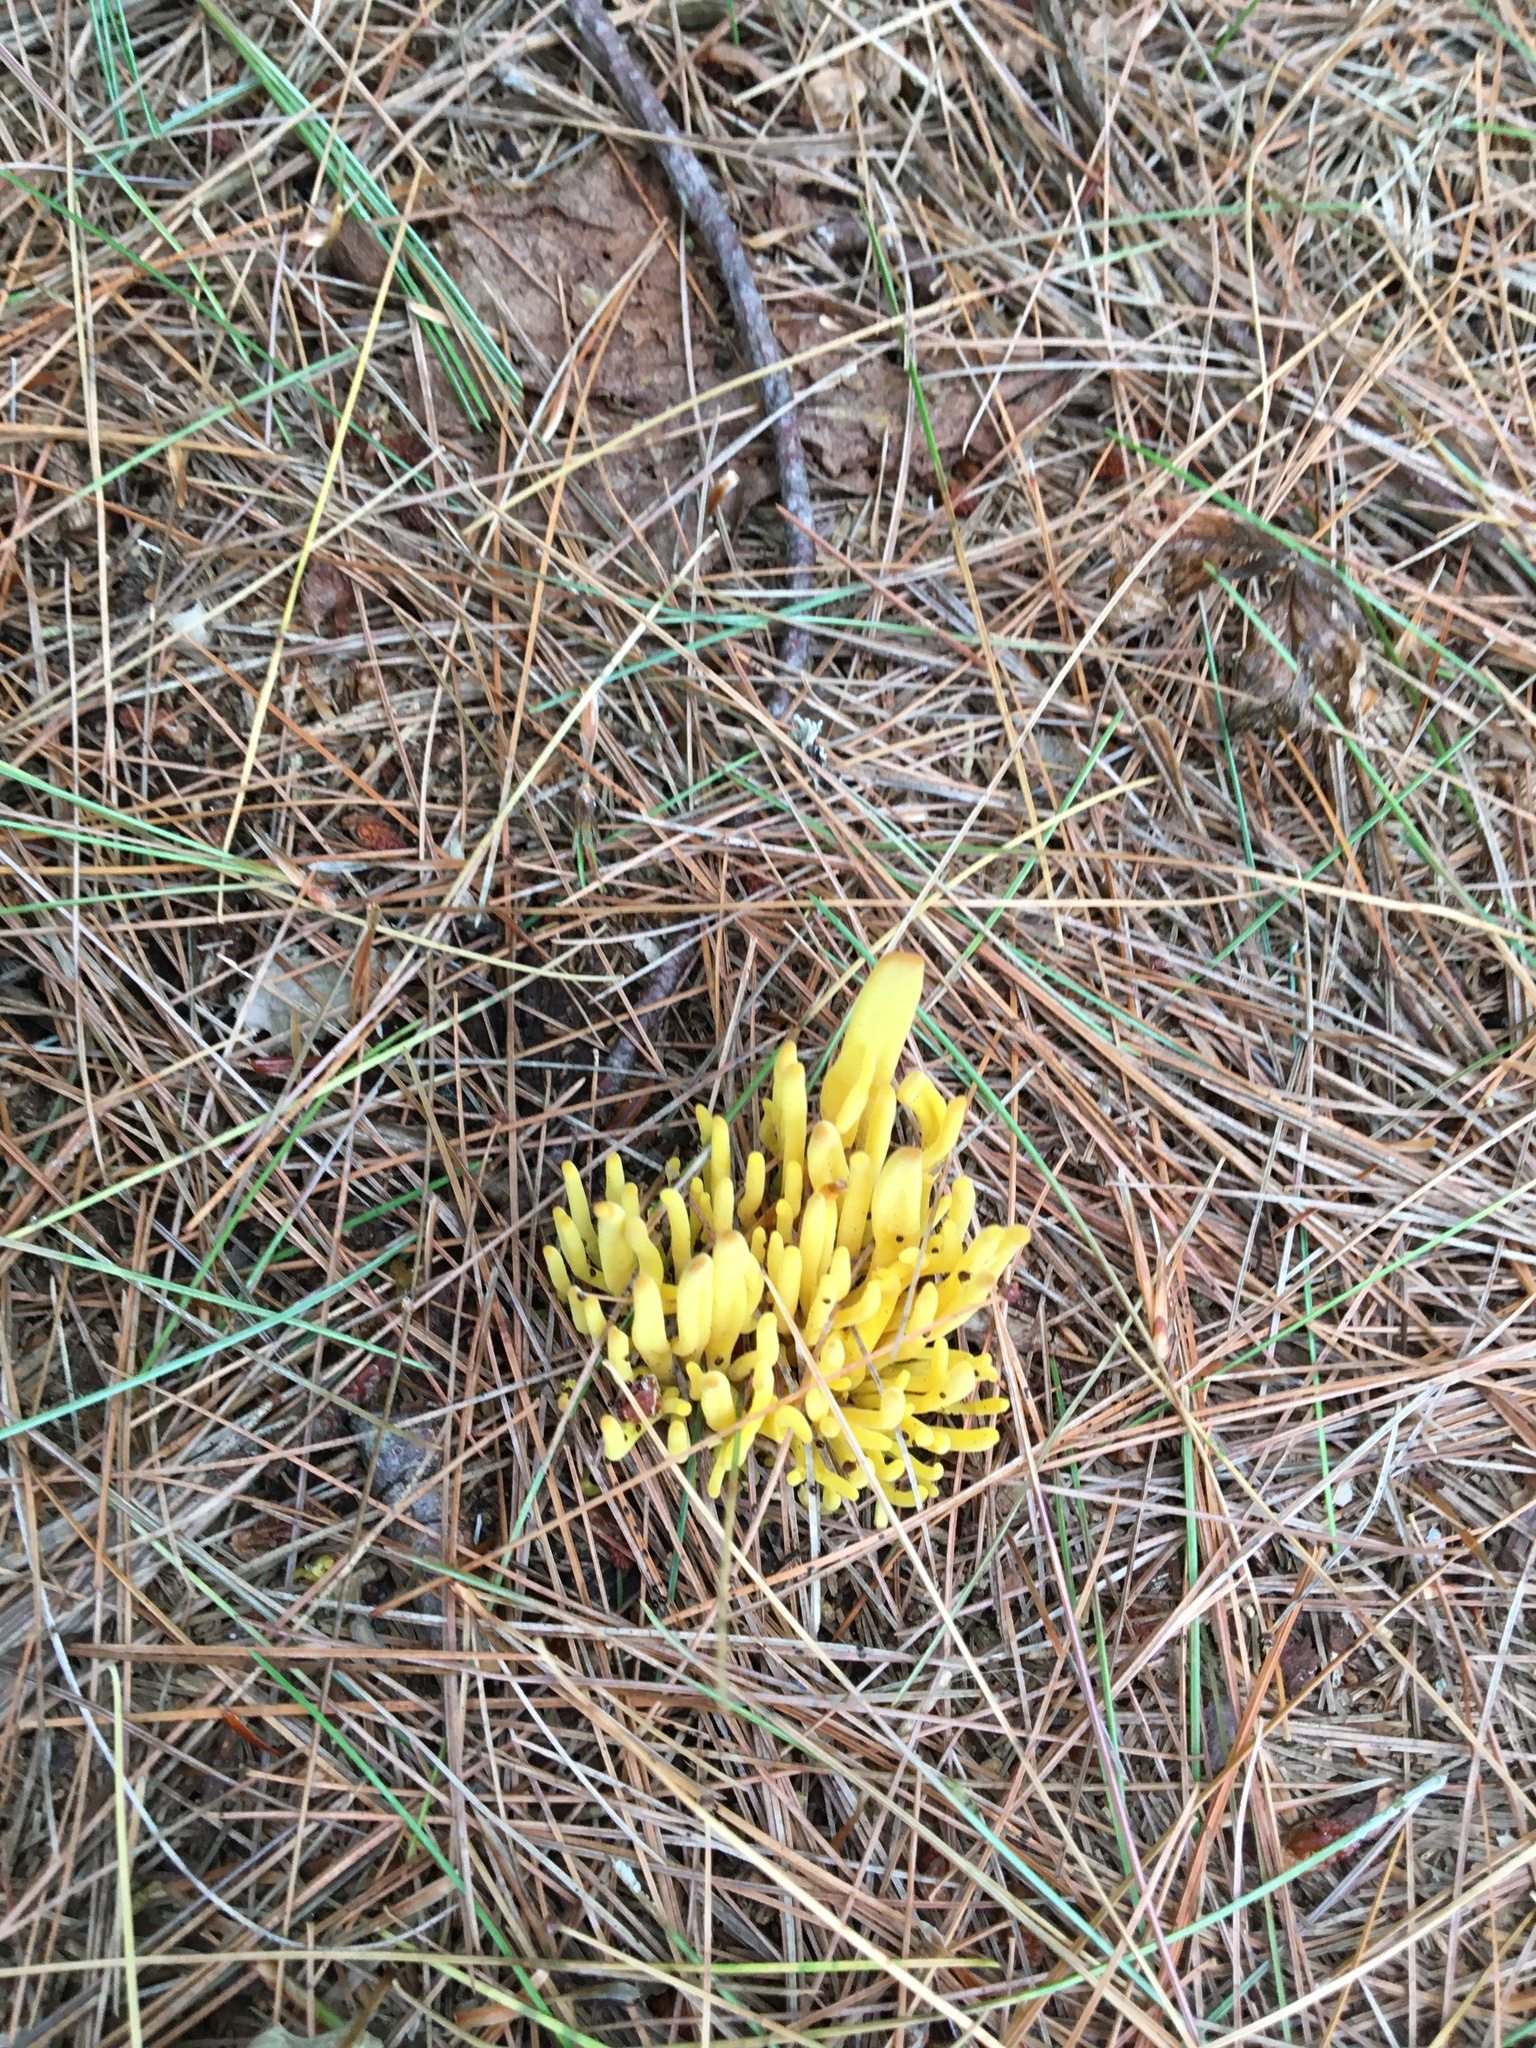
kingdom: Fungi
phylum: Basidiomycota
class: Agaricomycetes
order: Agaricales
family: Clavariaceae
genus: Clavulinopsis
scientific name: Clavulinopsis fusiformis
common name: Golden spindles
